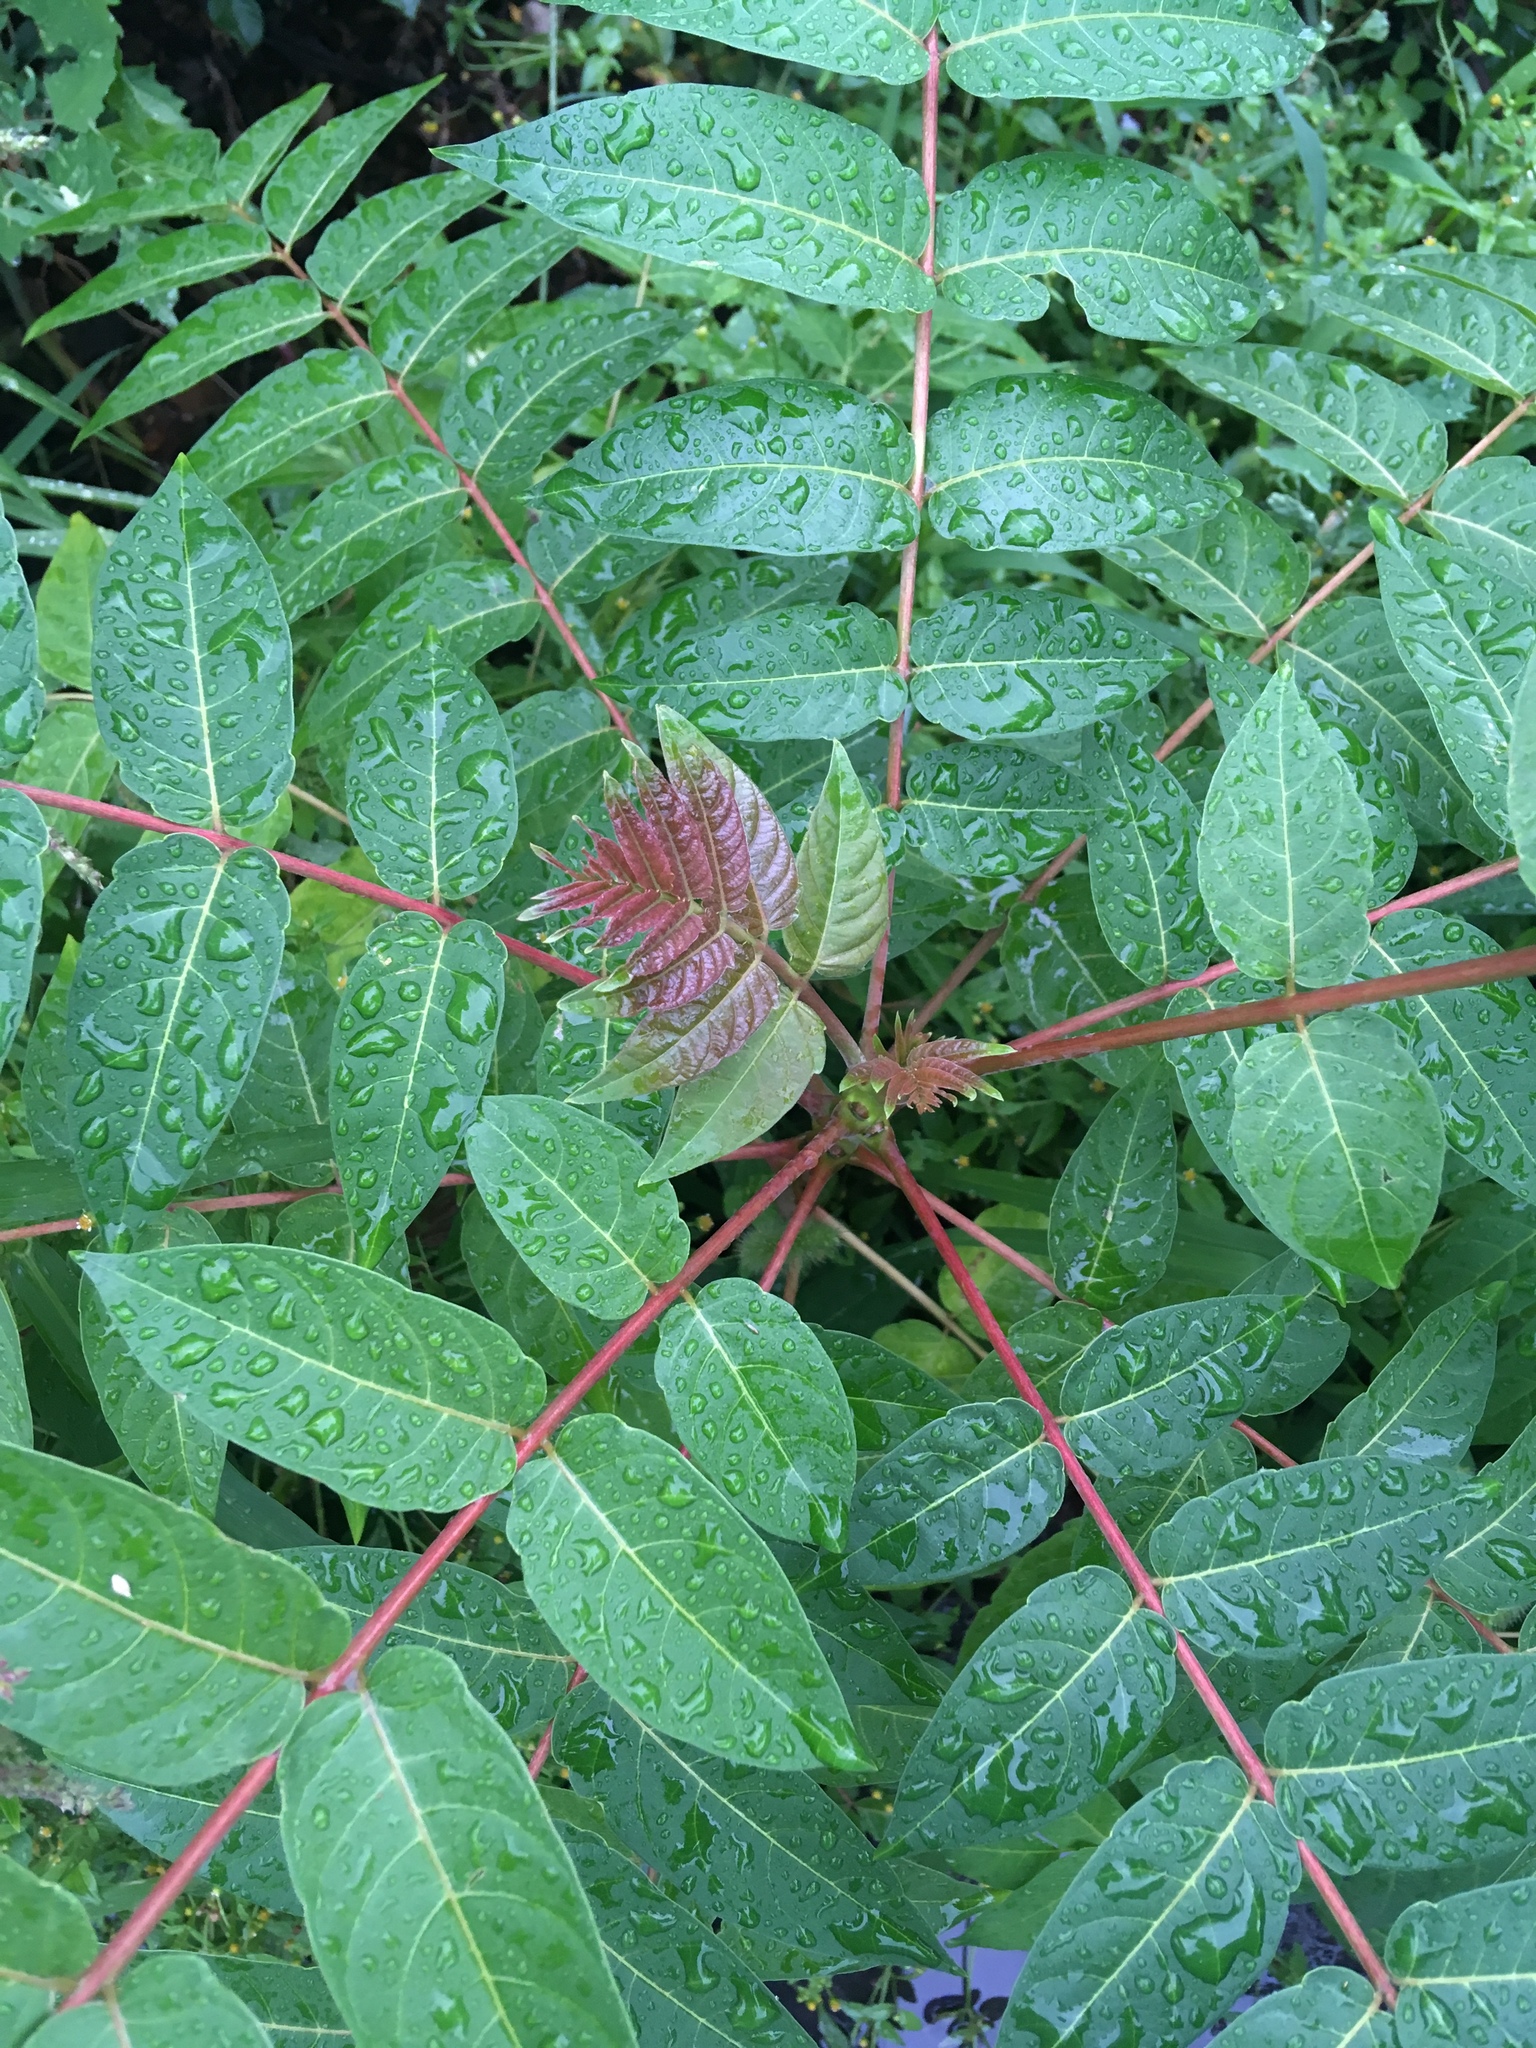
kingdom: Plantae
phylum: Tracheophyta
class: Magnoliopsida
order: Sapindales
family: Simaroubaceae
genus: Ailanthus
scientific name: Ailanthus altissima
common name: Tree-of-heaven
